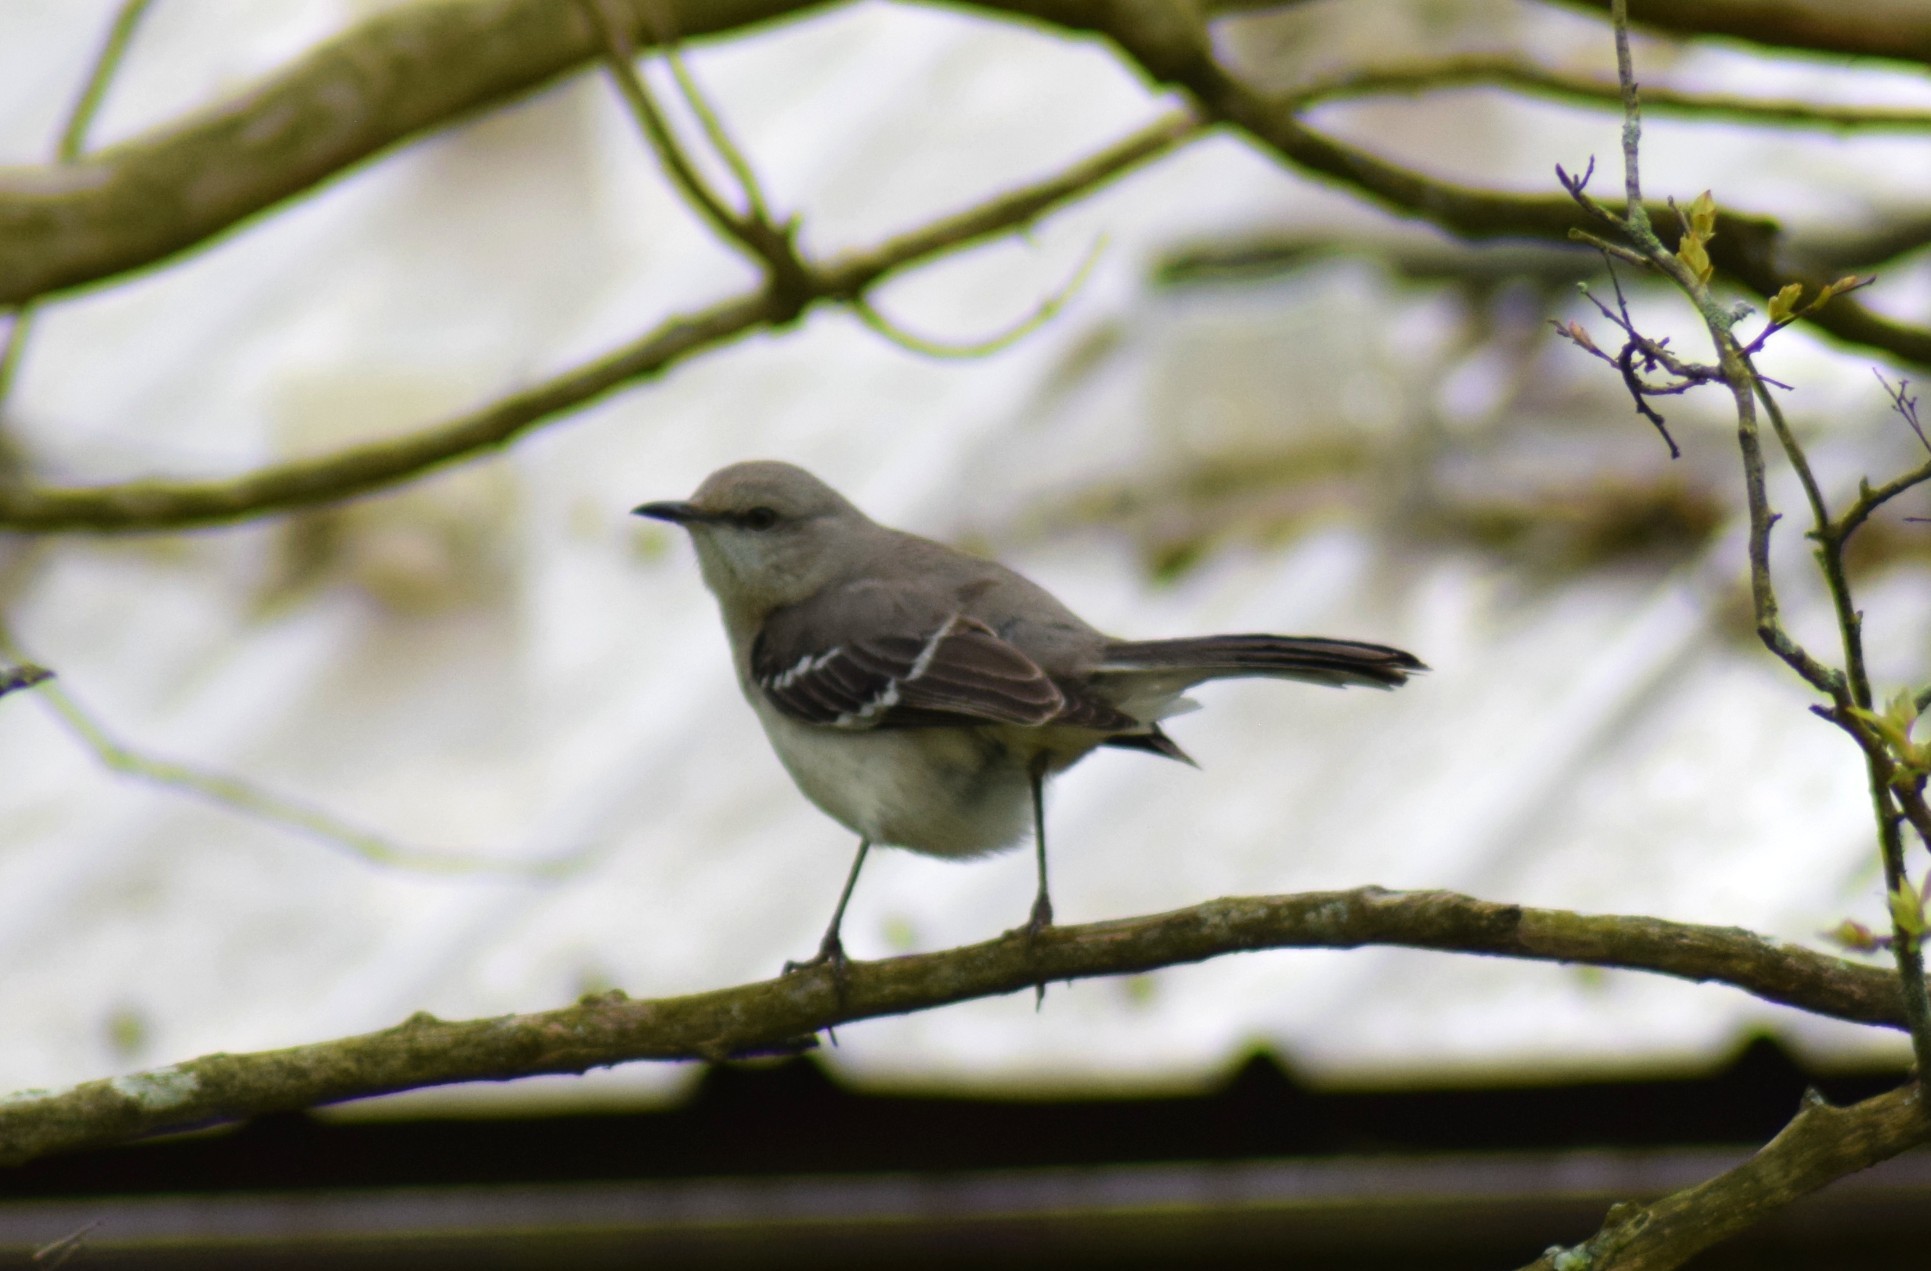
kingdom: Animalia
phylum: Chordata
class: Aves
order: Passeriformes
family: Mimidae
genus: Mimus
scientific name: Mimus polyglottos
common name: Northern mockingbird
